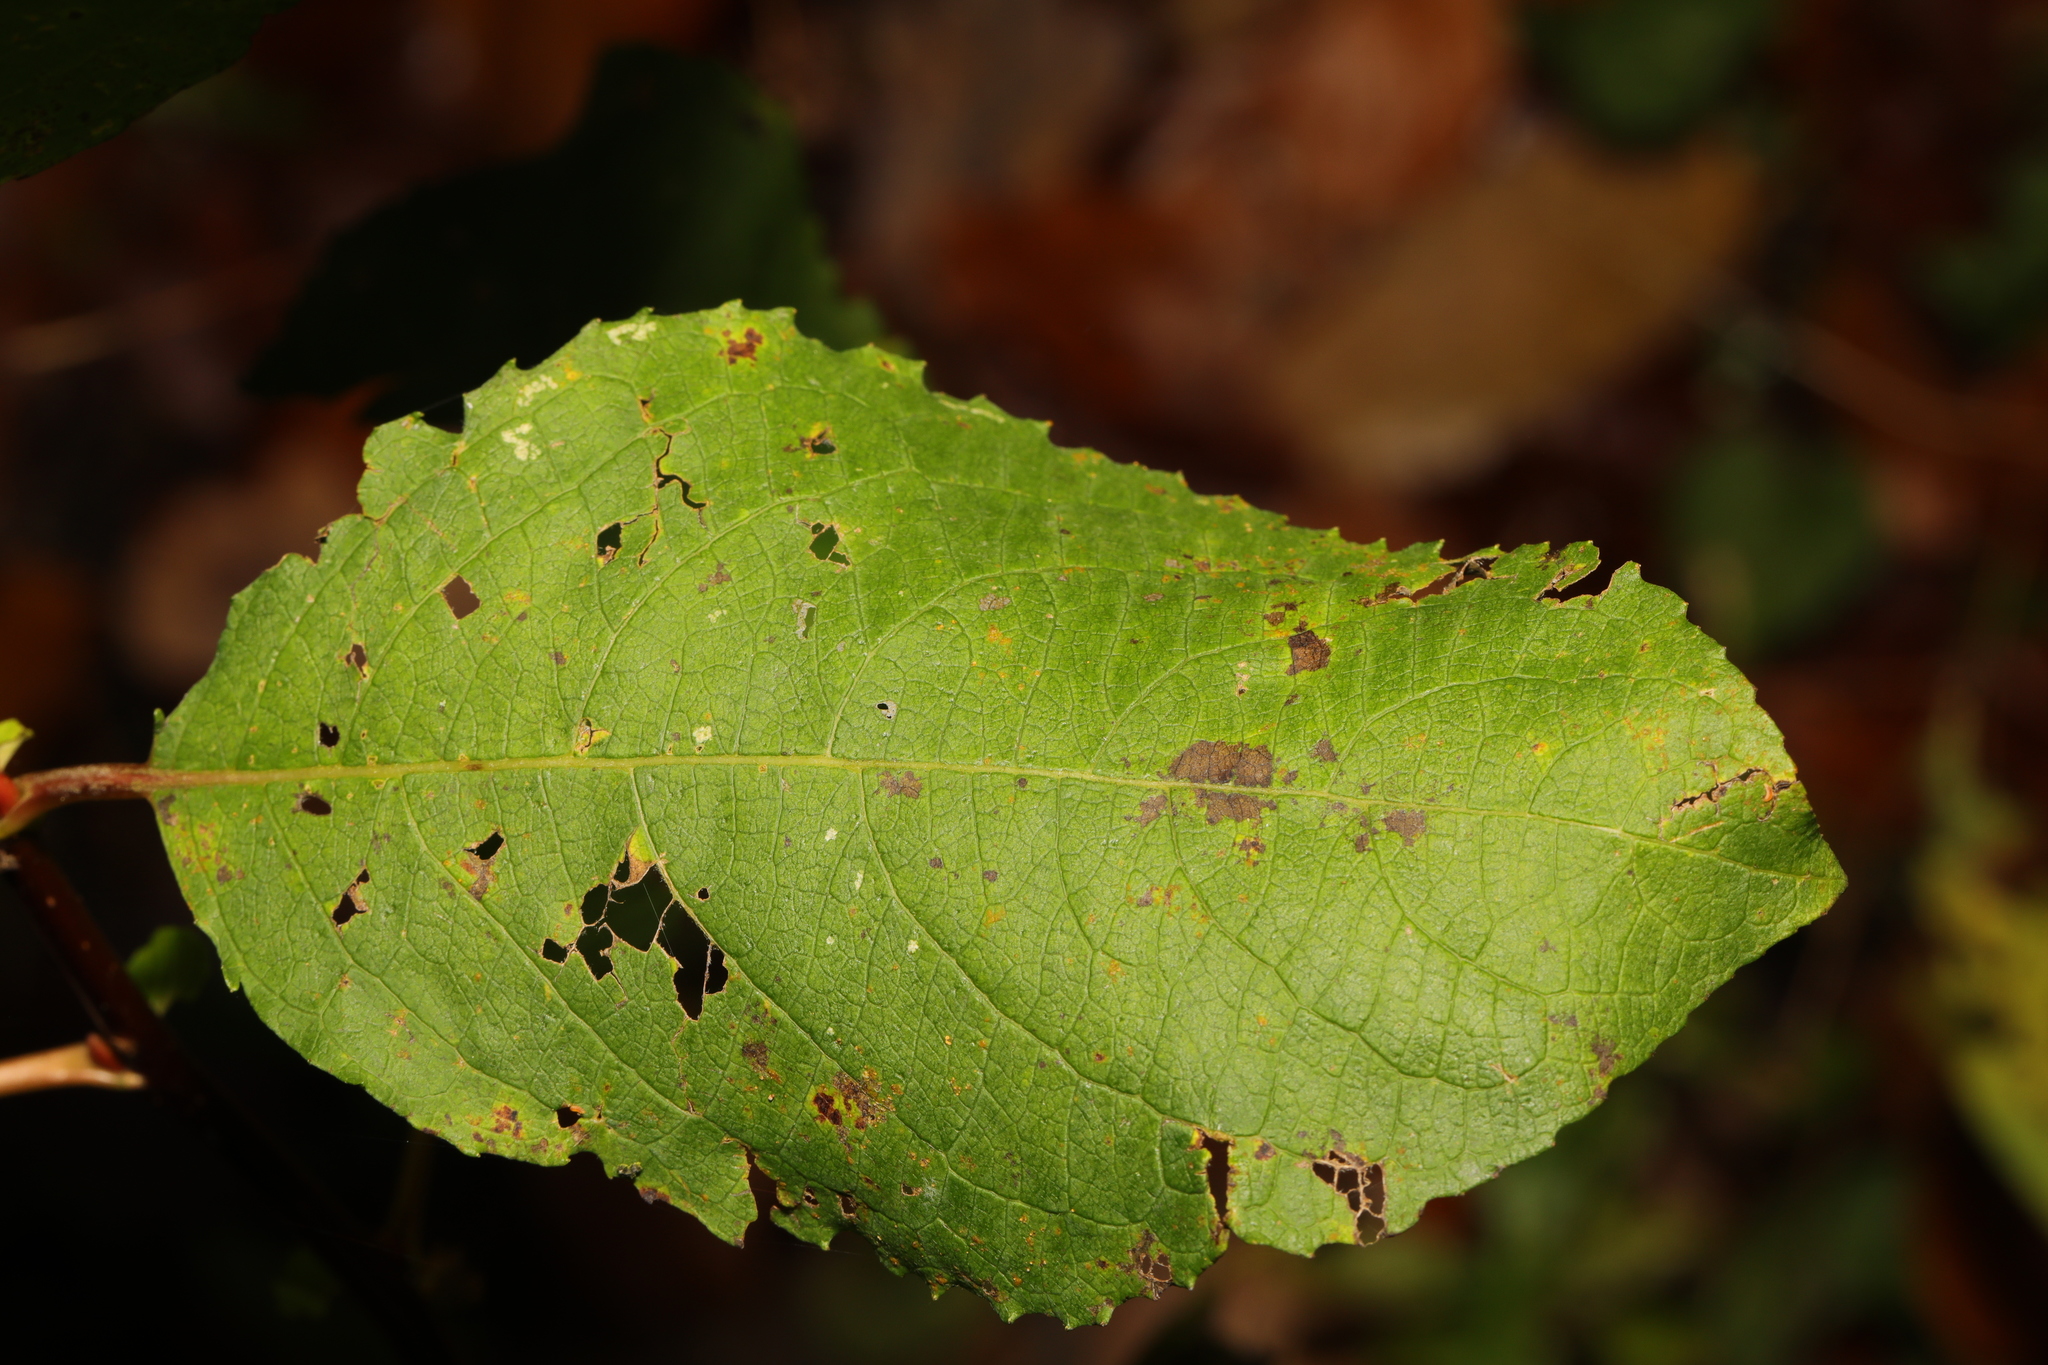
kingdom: Plantae
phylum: Tracheophyta
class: Magnoliopsida
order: Malpighiales
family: Salicaceae
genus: Salix
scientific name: Salix caprea
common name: Goat willow
